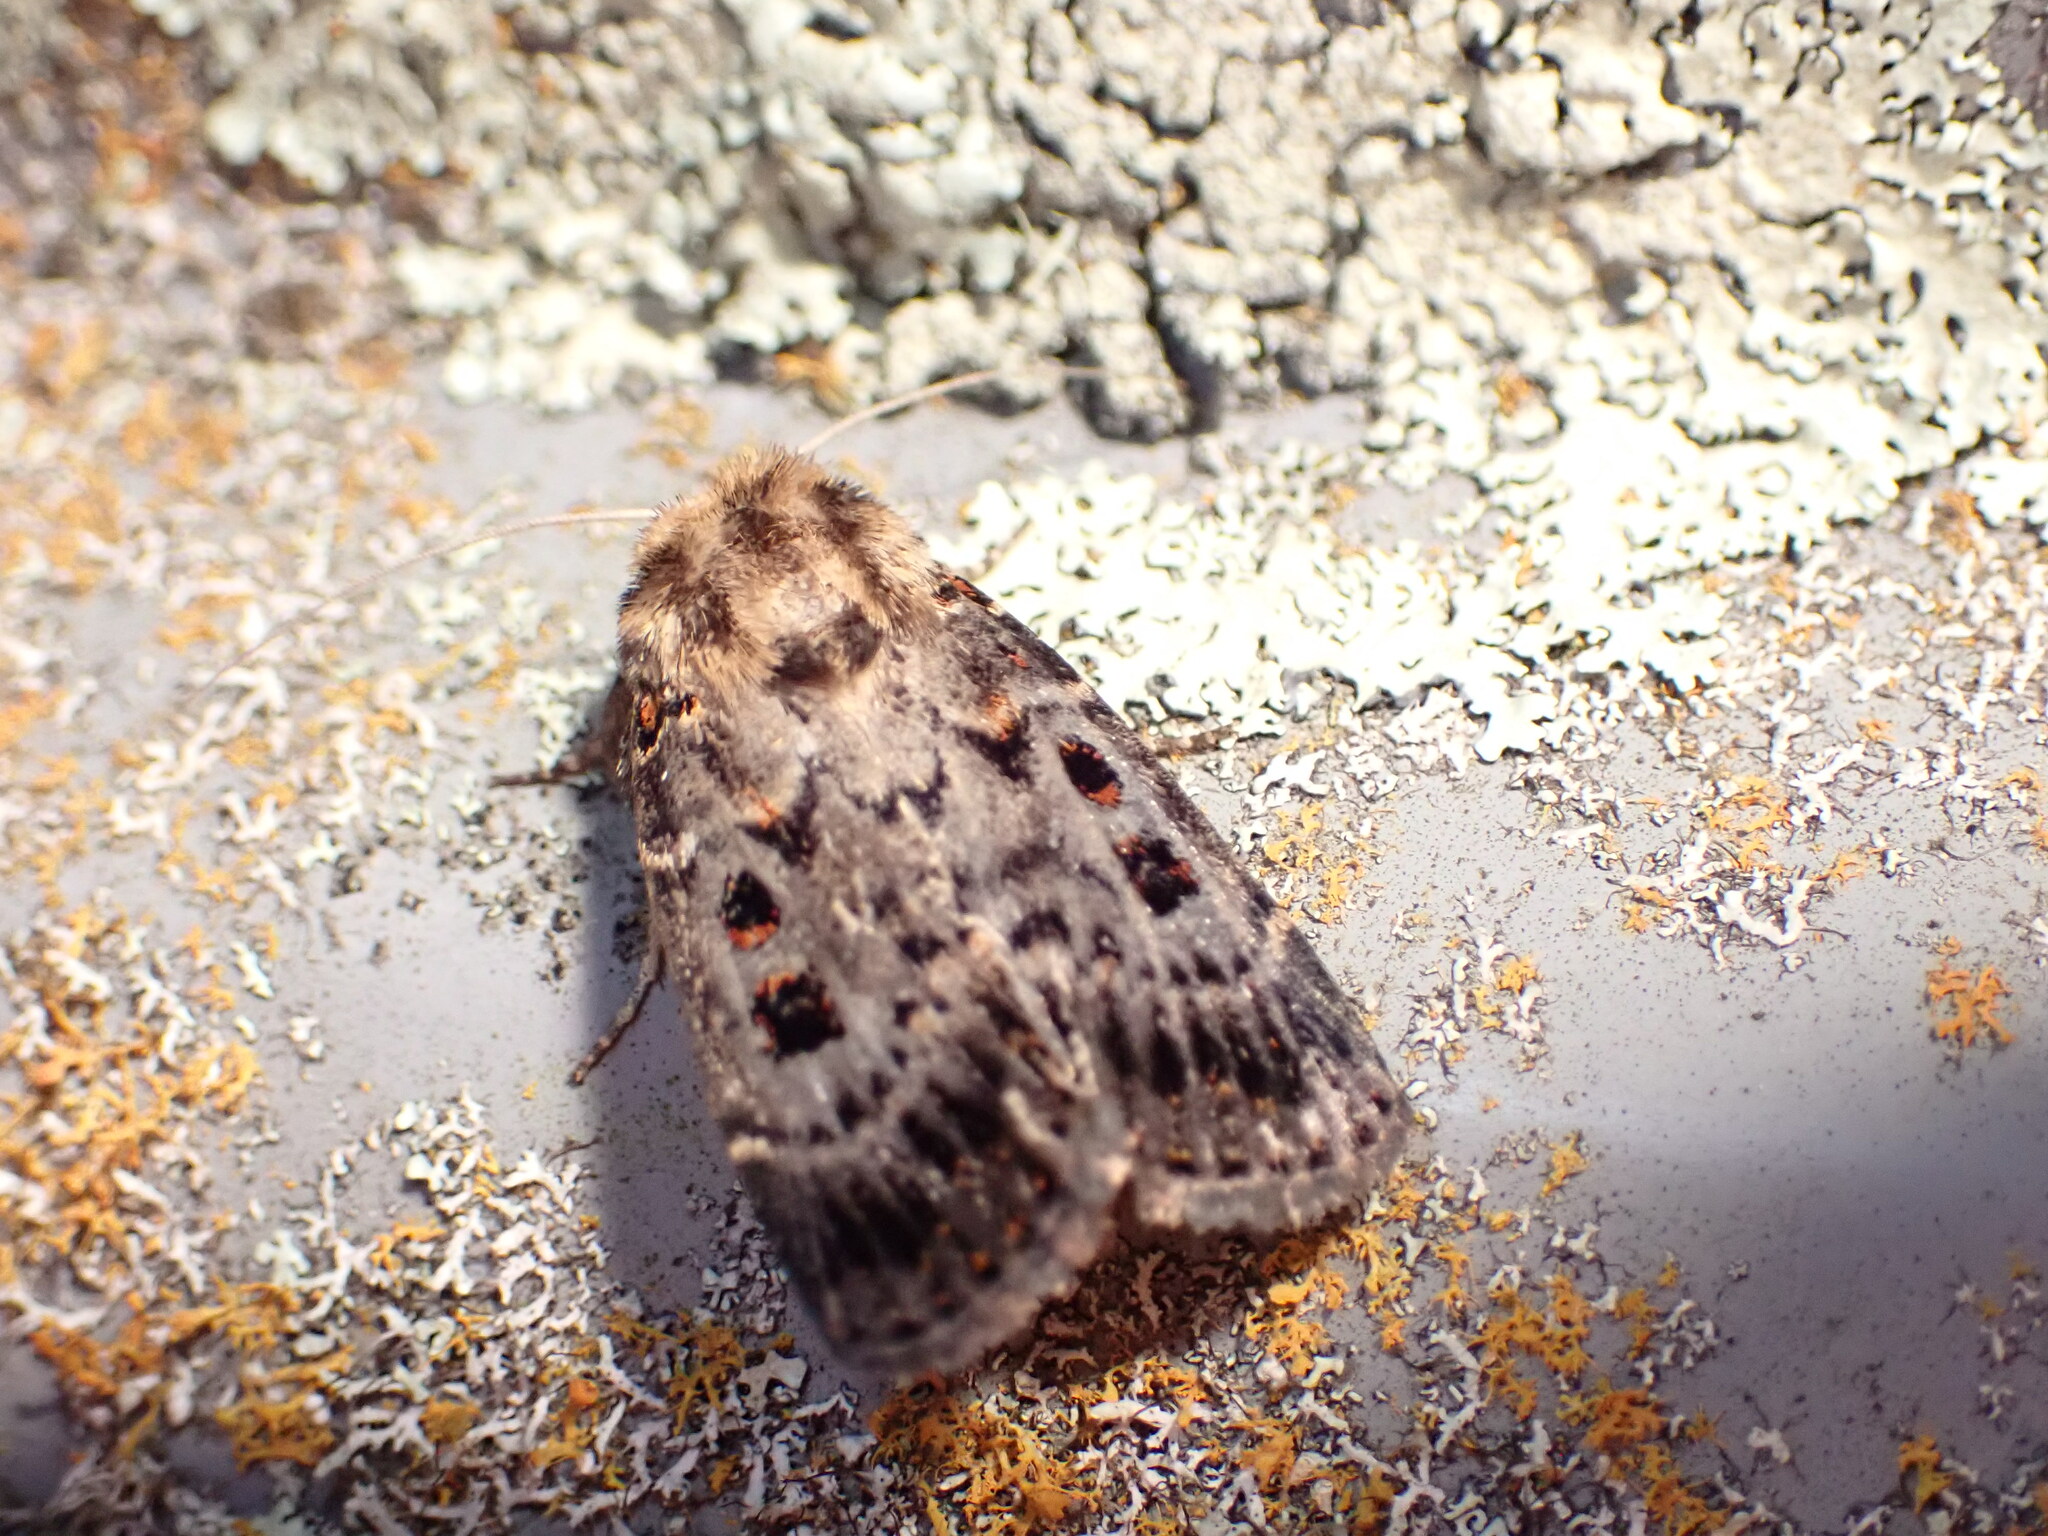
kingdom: Animalia
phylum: Arthropoda
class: Insecta
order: Lepidoptera
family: Noctuidae
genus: Proteuxoa
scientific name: Proteuxoa sanguinipuncta
